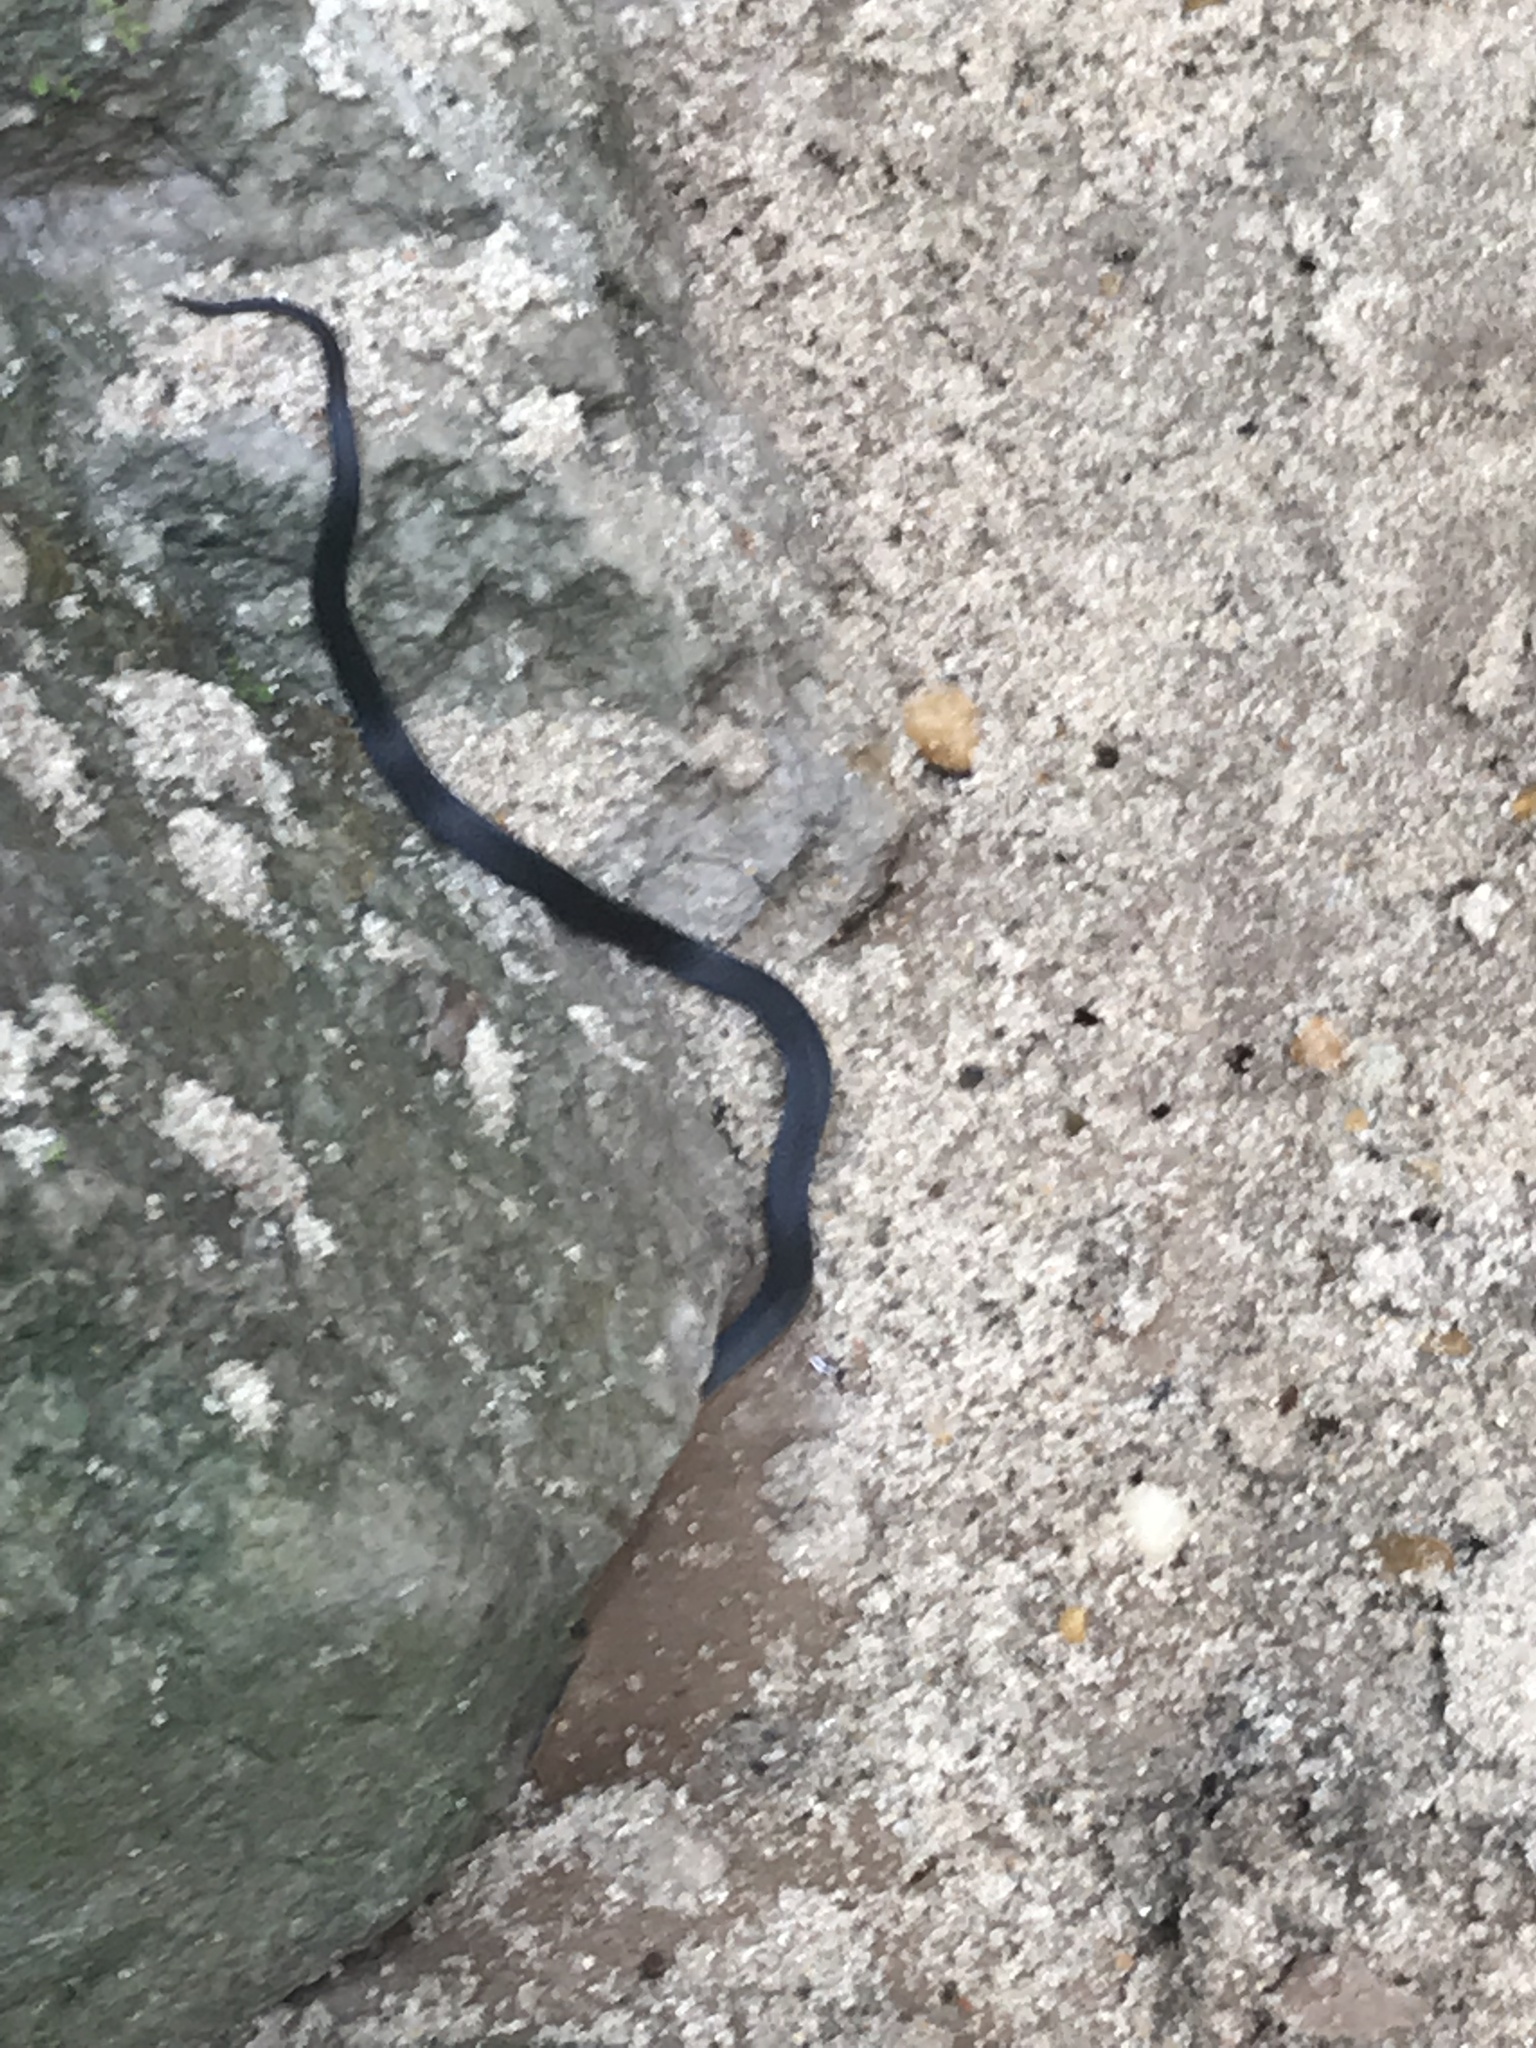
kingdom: Animalia
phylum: Chordata
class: Squamata
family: Colubridae
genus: Diadophis
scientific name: Diadophis punctatus
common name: Ringneck snake
